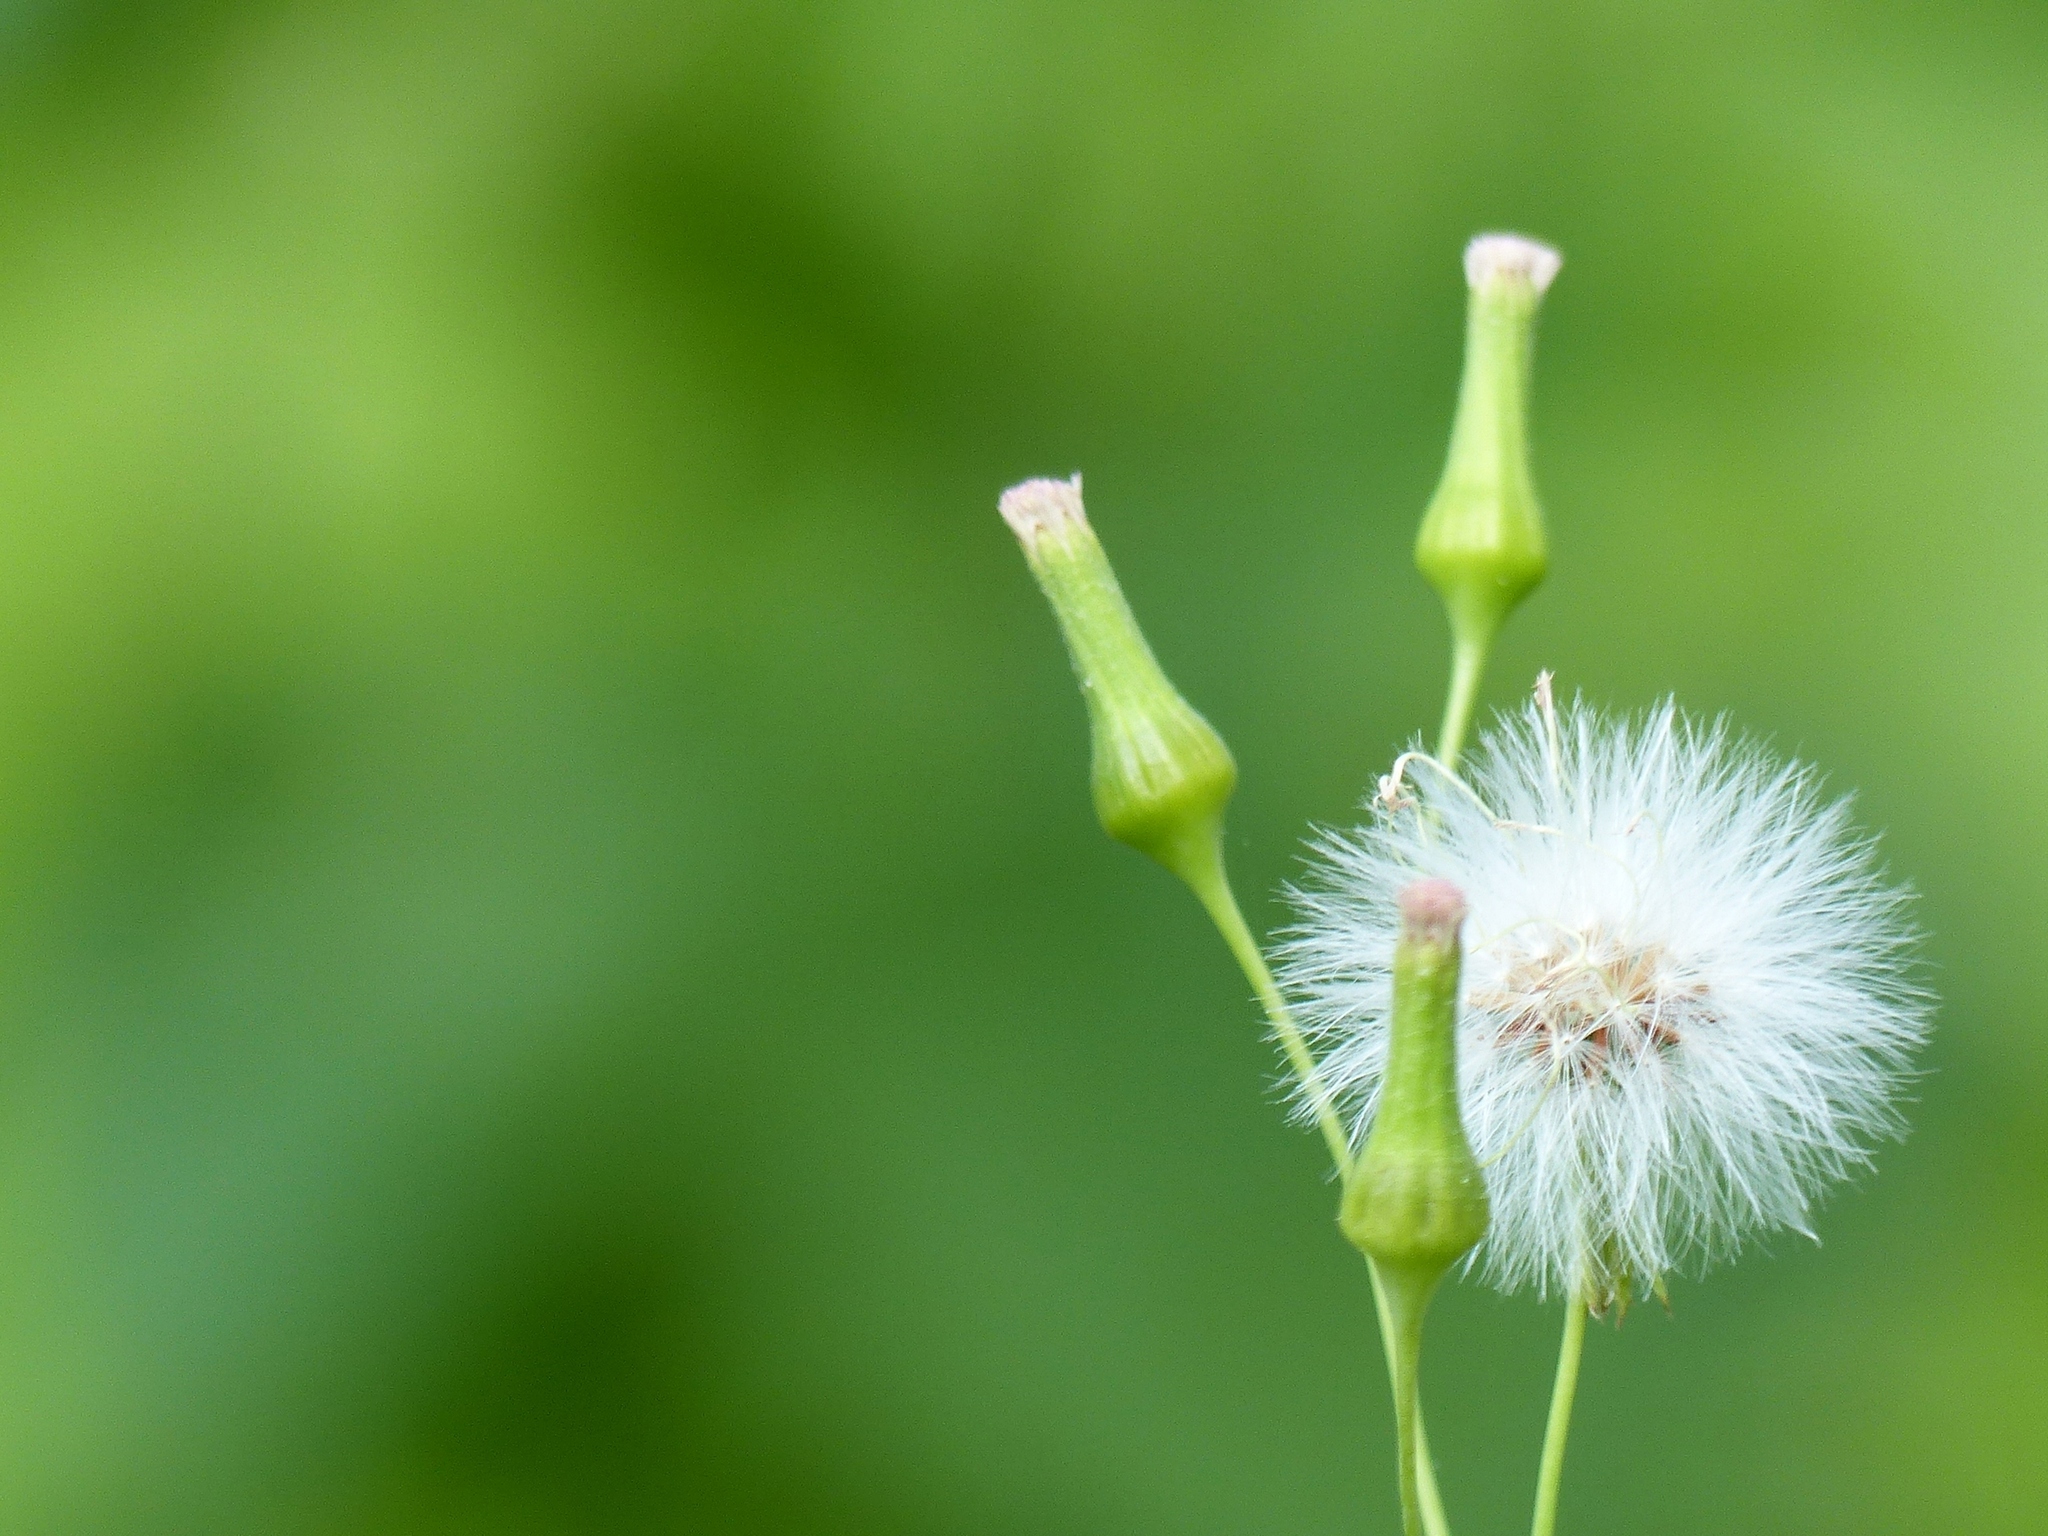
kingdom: Plantae
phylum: Tracheophyta
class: Magnoliopsida
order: Asterales
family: Asteraceae
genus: Emilia
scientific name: Emilia sonchifolia
